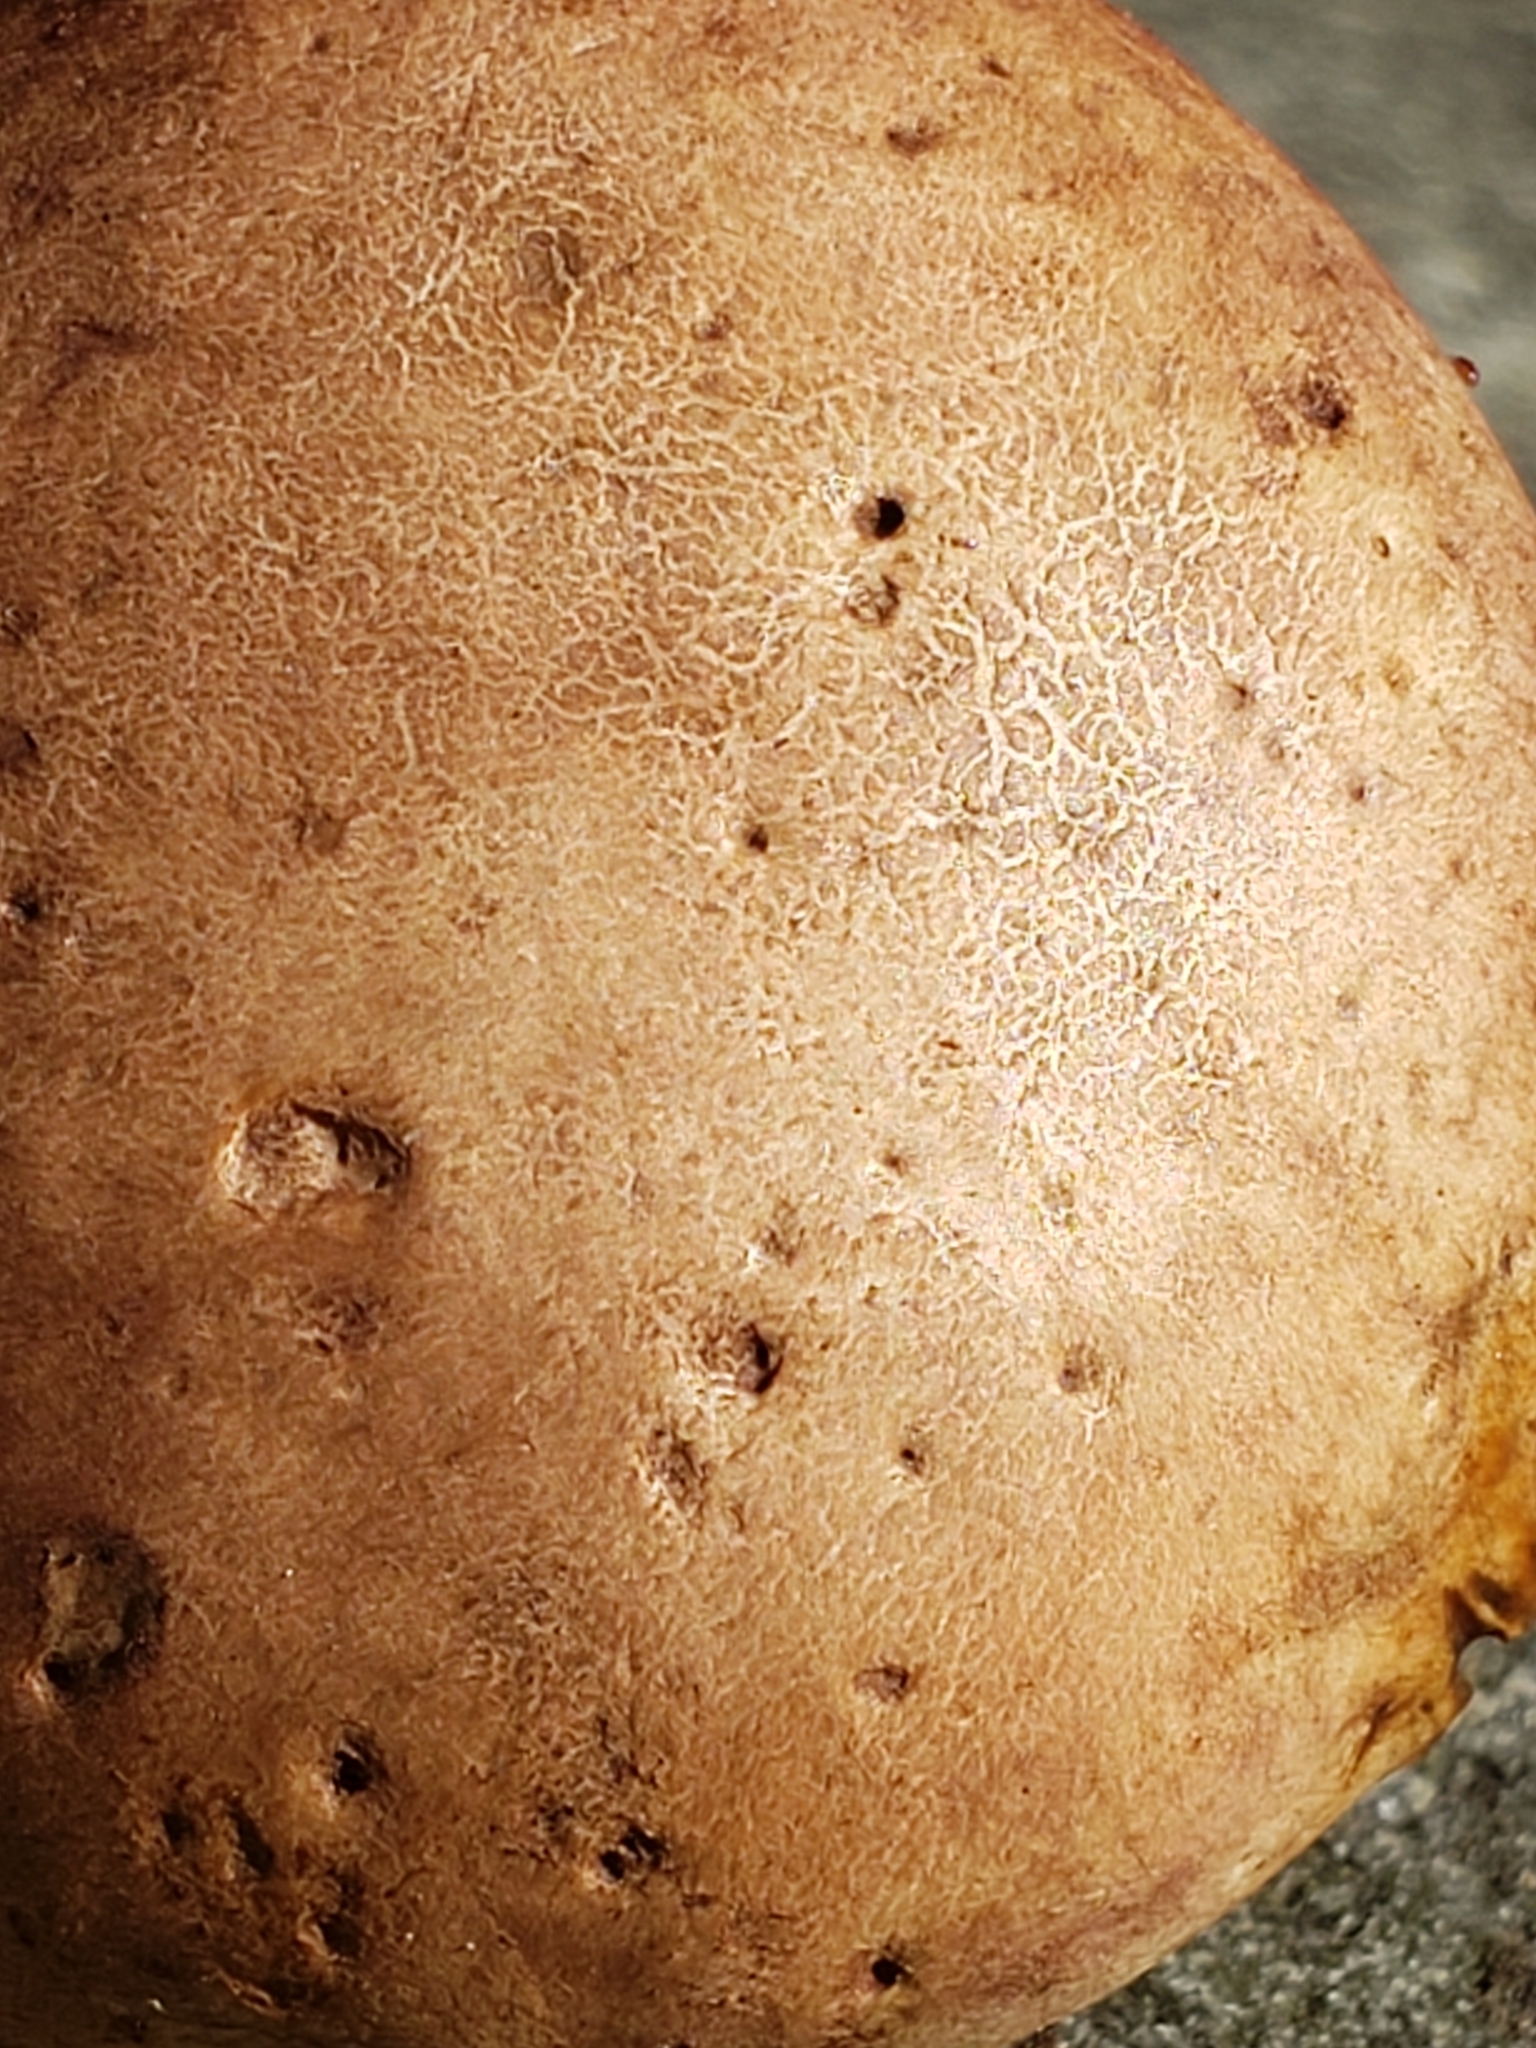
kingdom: Fungi
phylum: Basidiomycota
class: Agaricomycetes
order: Boletales
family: Sclerodermataceae
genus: Scleroderma
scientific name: Scleroderma cepa
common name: Onion earthball
